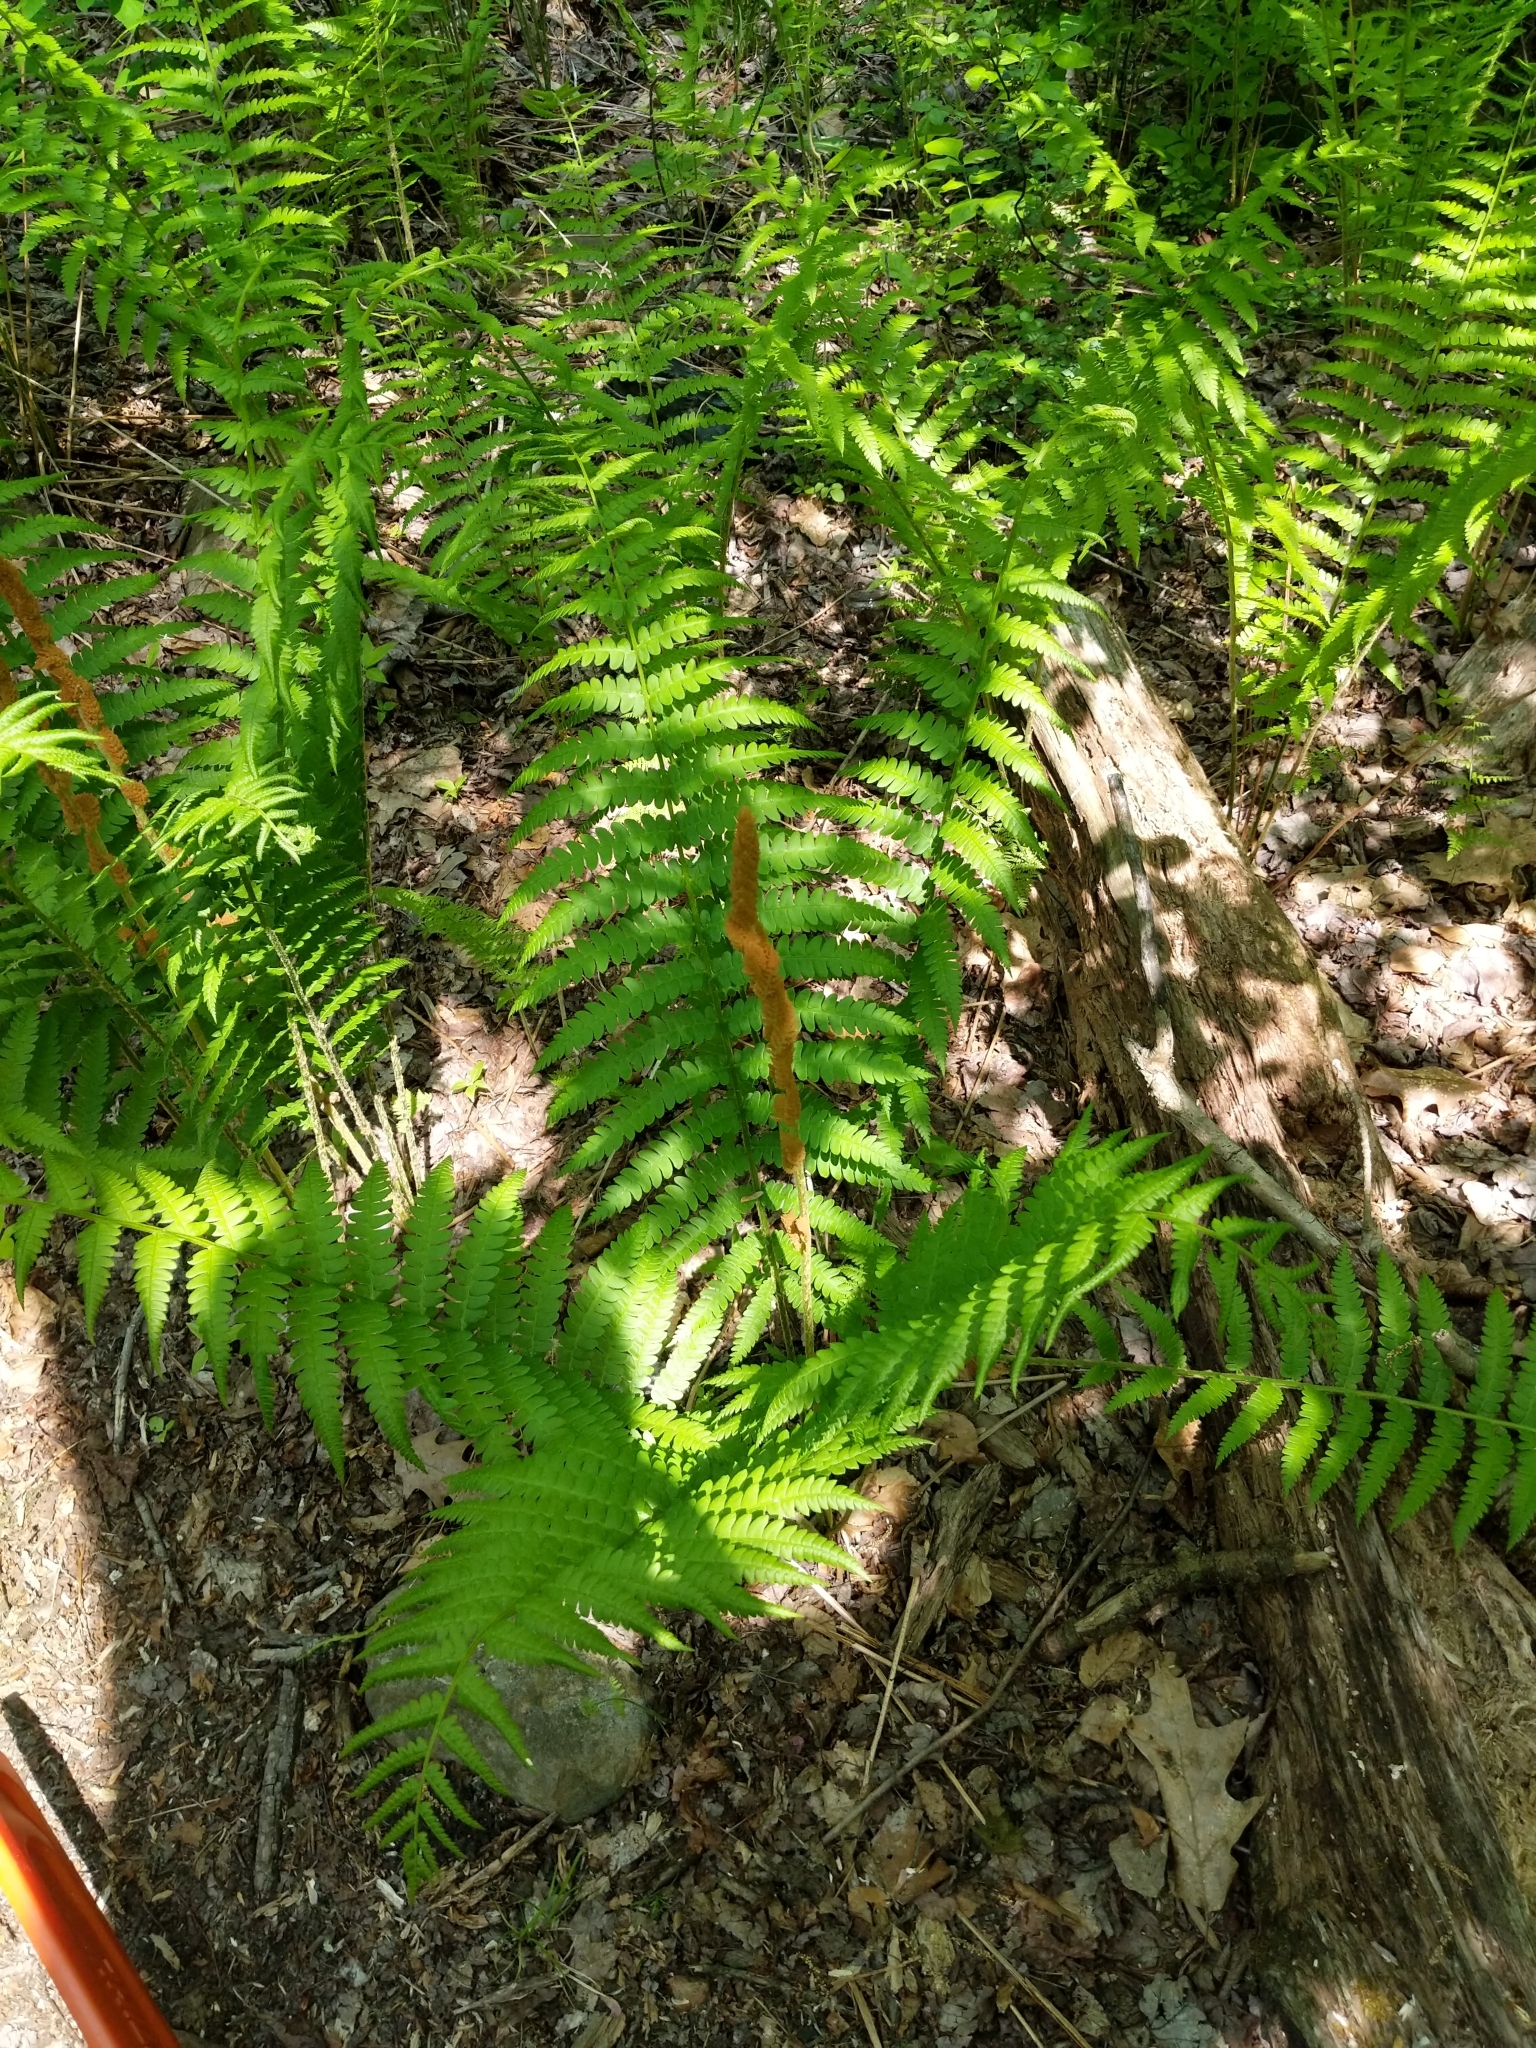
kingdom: Plantae
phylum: Tracheophyta
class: Polypodiopsida
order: Osmundales
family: Osmundaceae
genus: Osmundastrum
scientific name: Osmundastrum cinnamomeum
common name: Cinnamon fern
